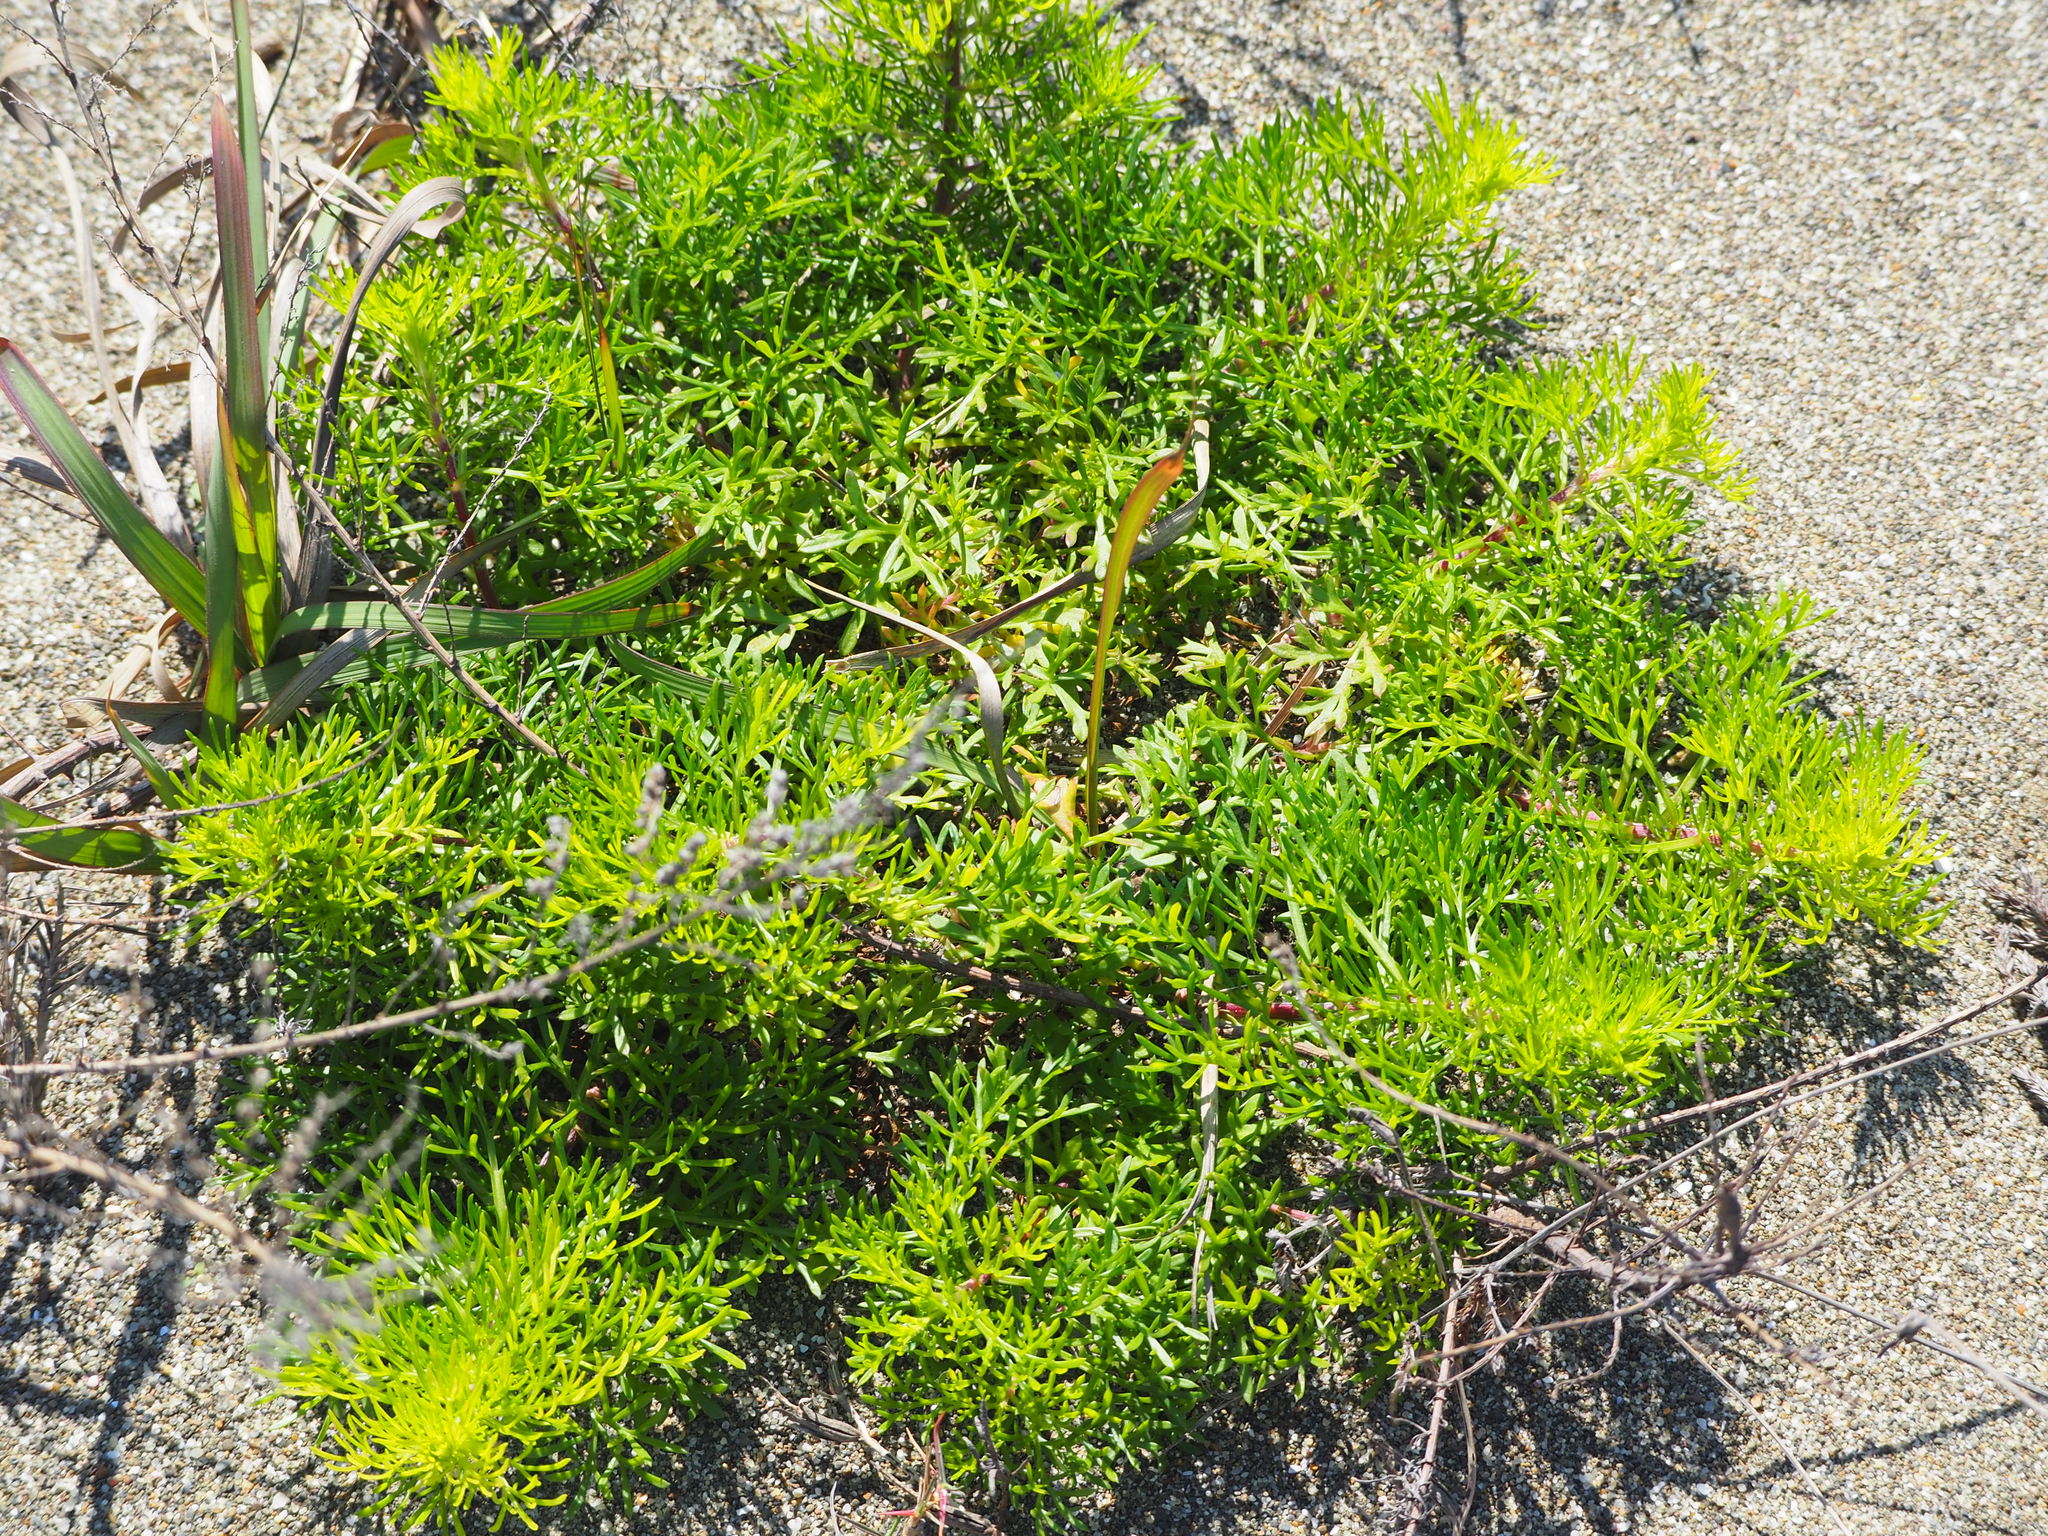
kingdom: Plantae
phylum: Tracheophyta
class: Magnoliopsida
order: Asterales
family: Asteraceae
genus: Artemisia
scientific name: Artemisia capillaris
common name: Yin-chen wormwood
